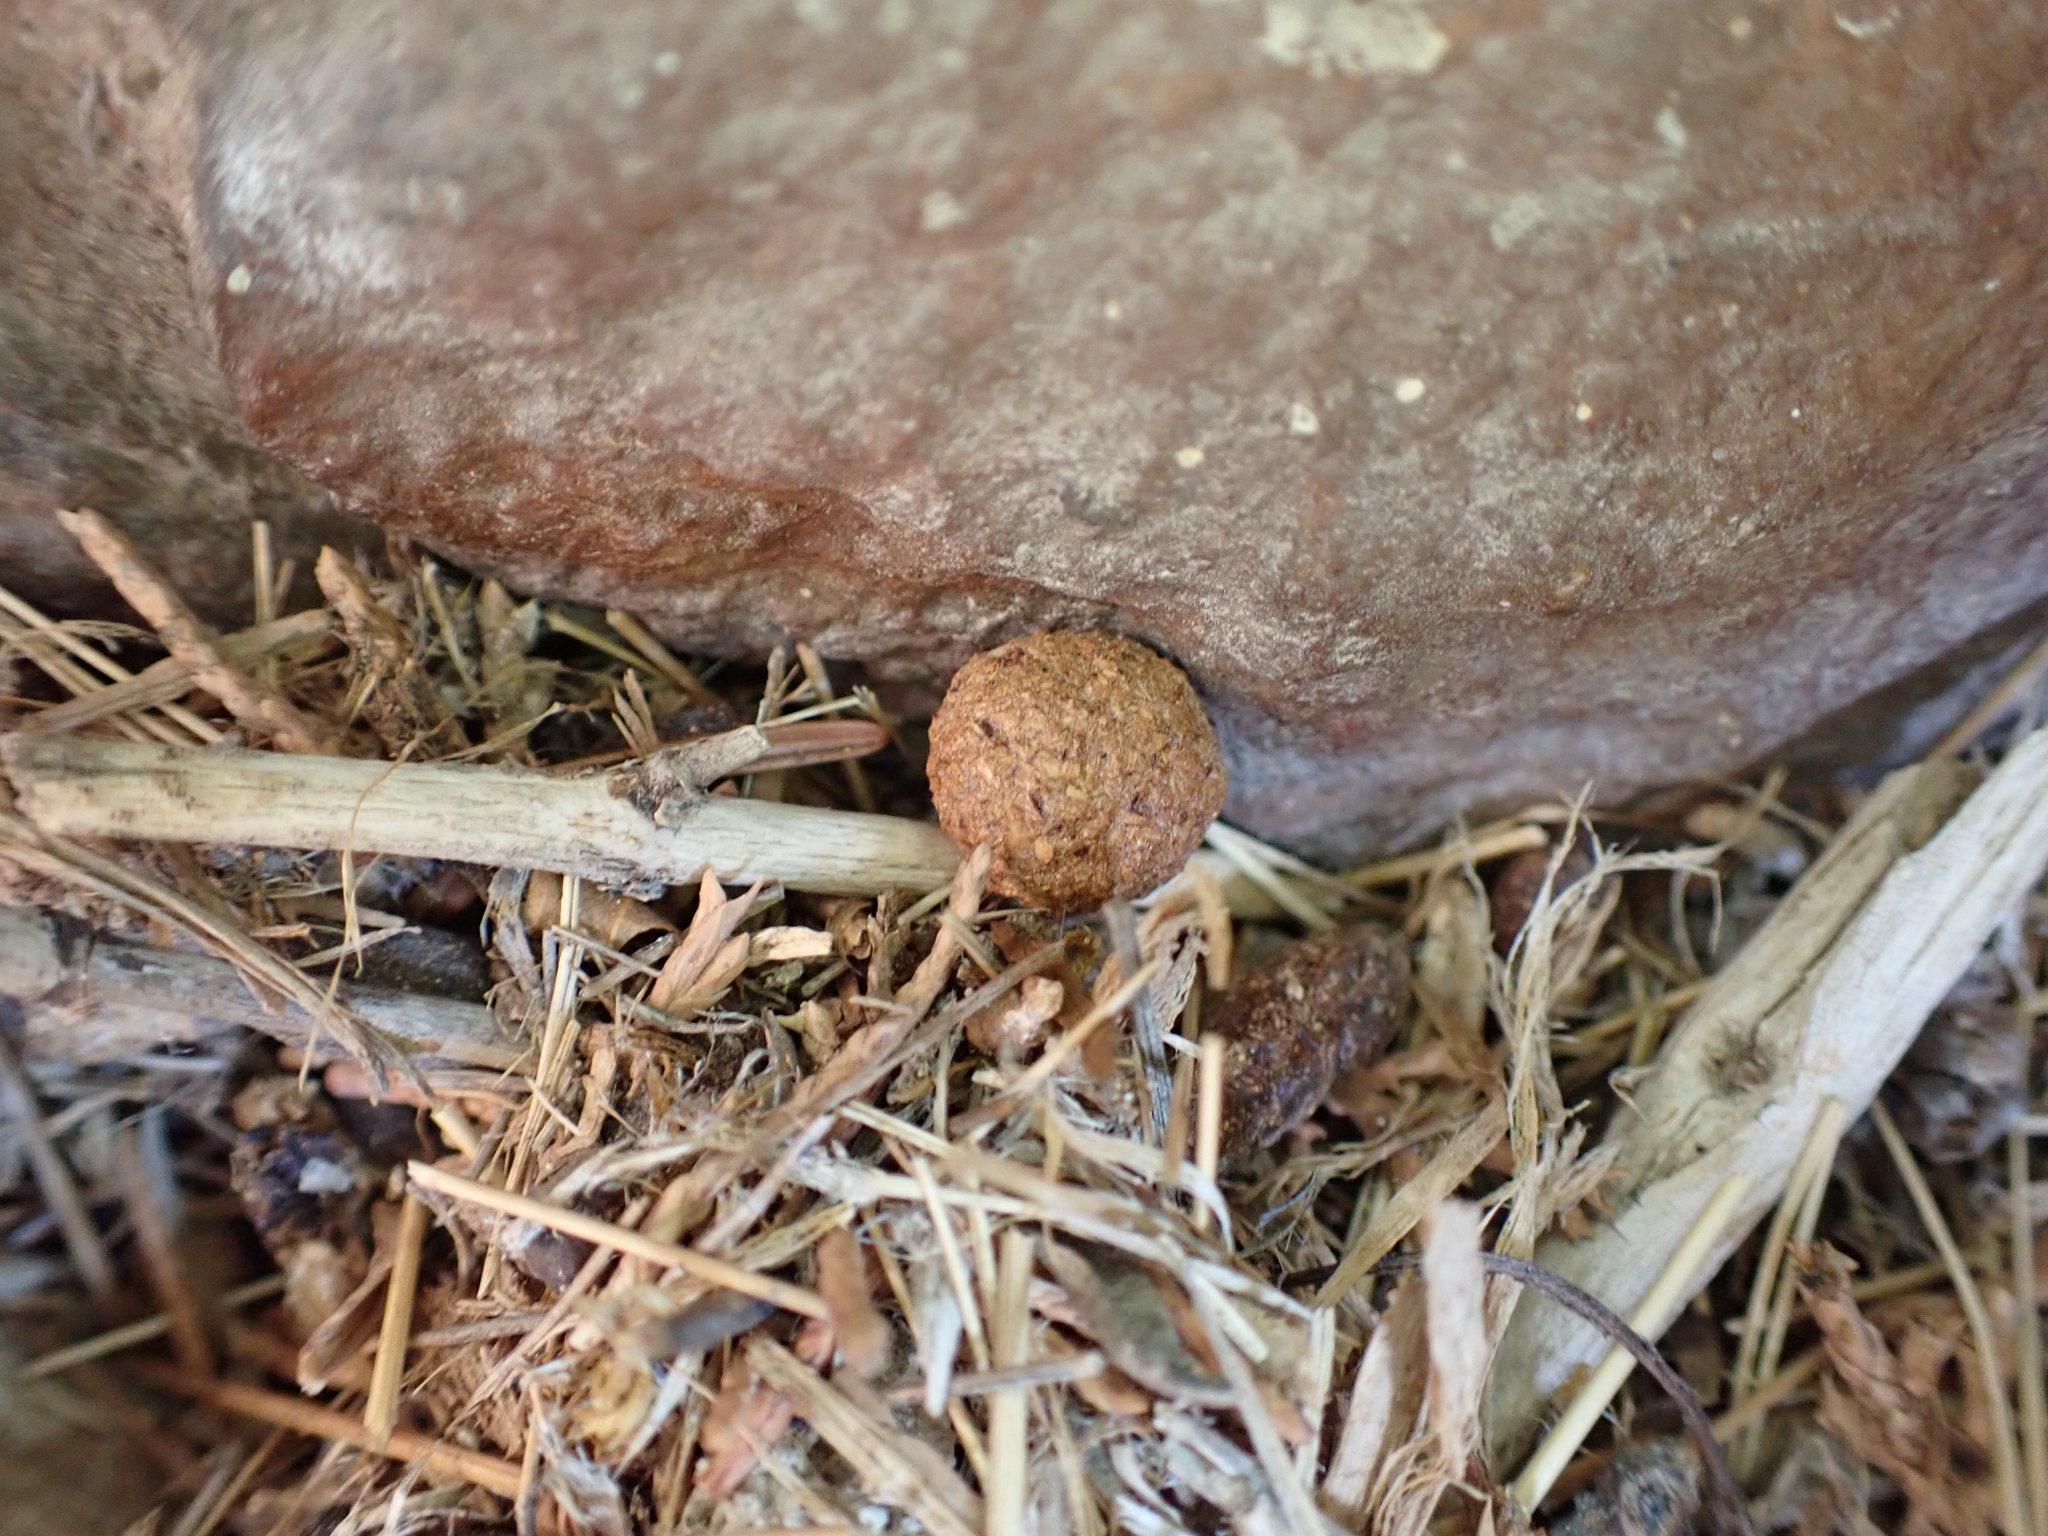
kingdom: Animalia
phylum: Chordata
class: Mammalia
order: Lagomorpha
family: Leporidae
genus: Lepus
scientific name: Lepus americanus
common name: Snowshoe hare
